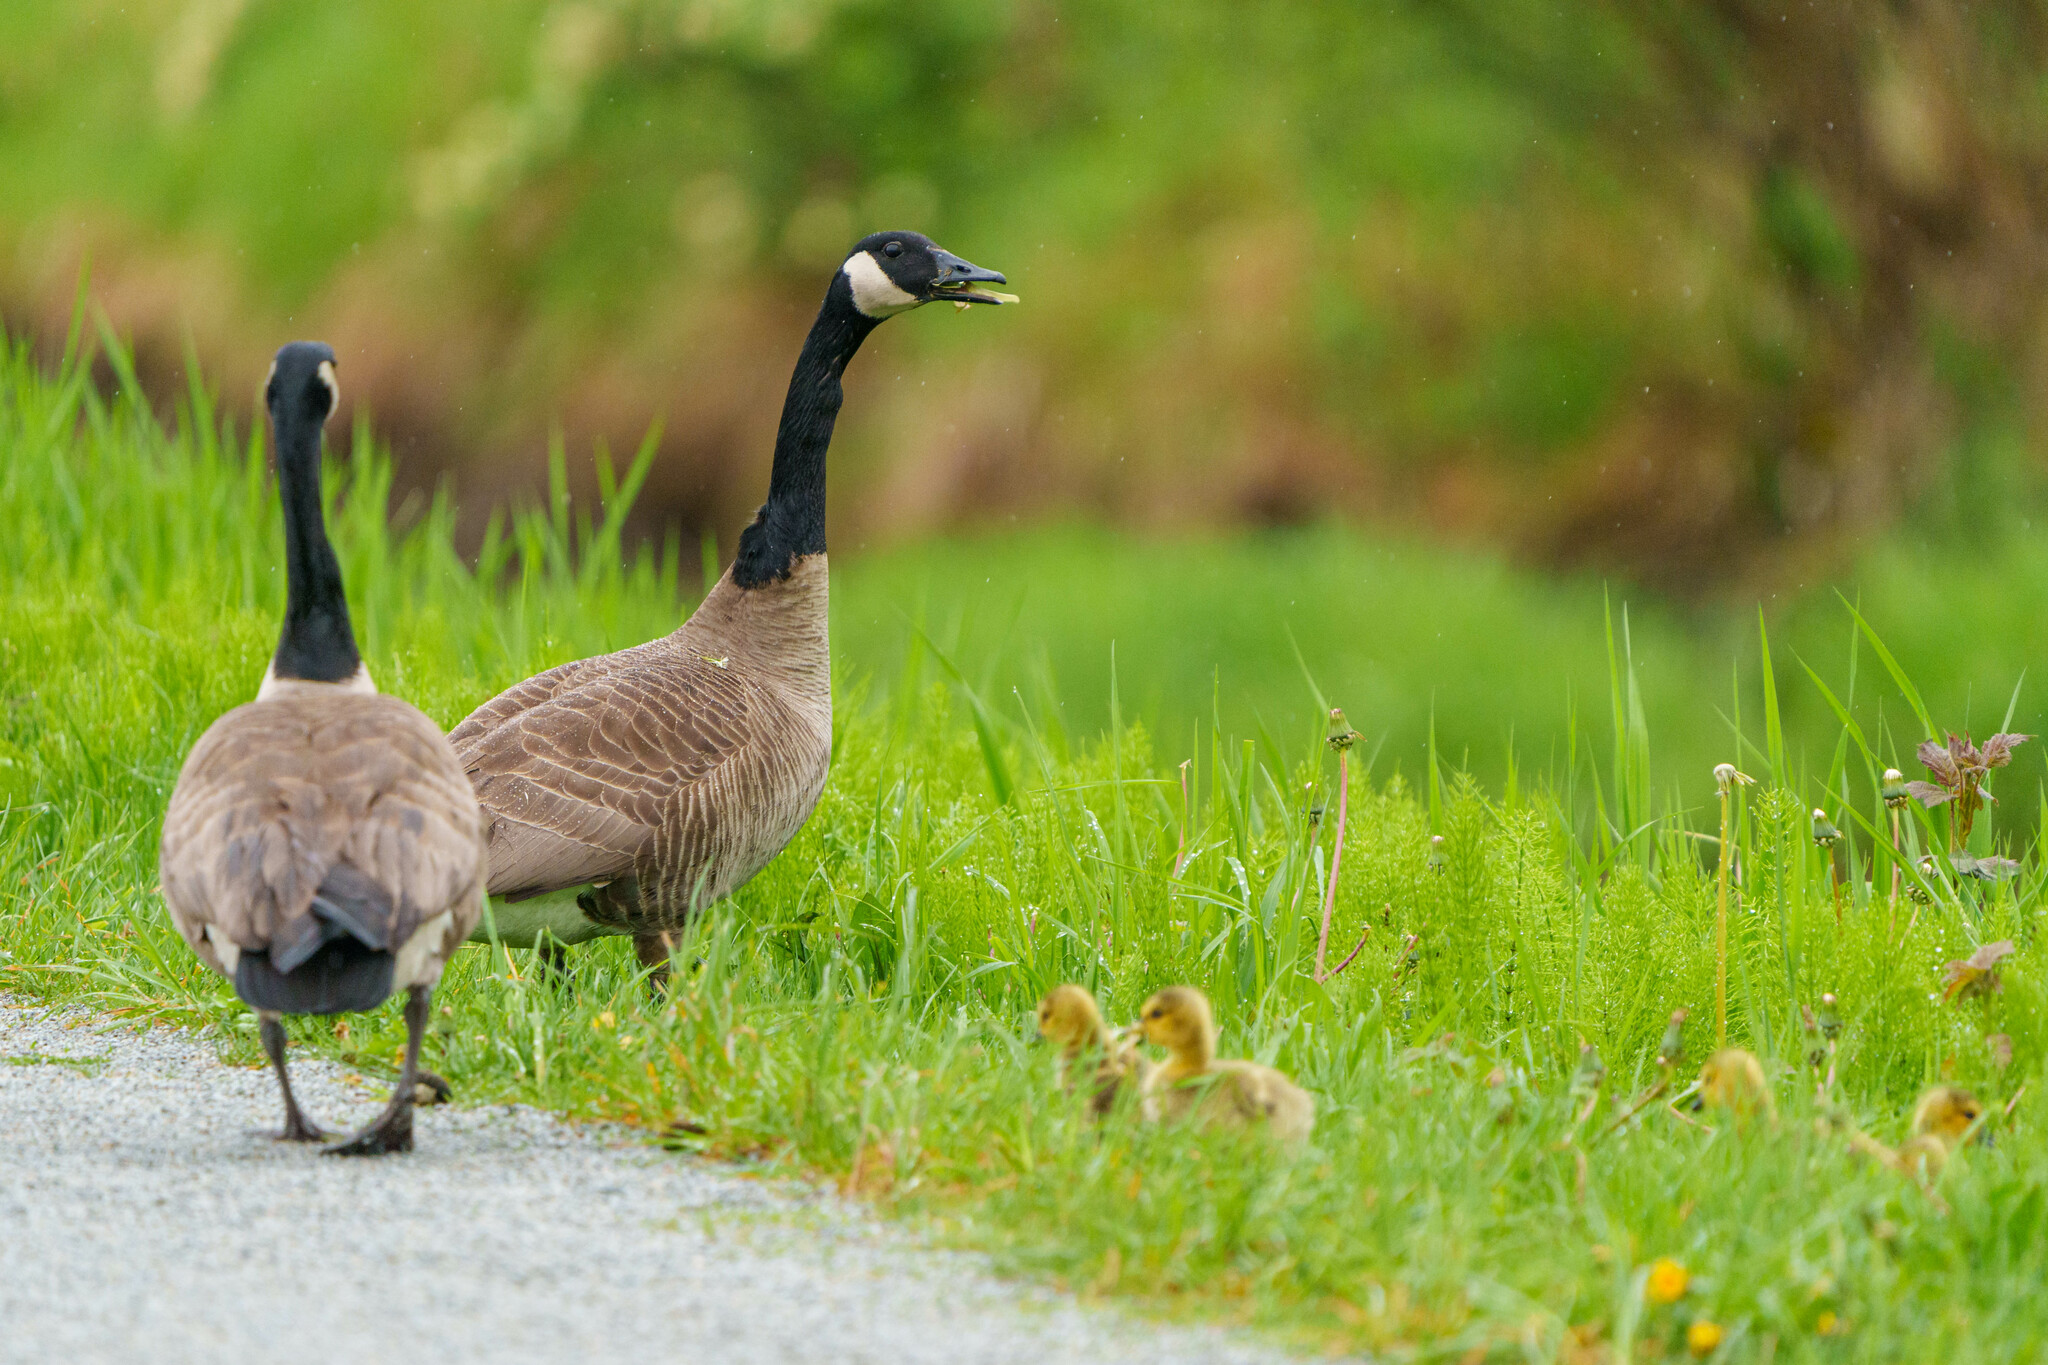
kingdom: Animalia
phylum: Chordata
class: Aves
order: Anseriformes
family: Anatidae
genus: Branta
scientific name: Branta canadensis
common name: Canada goose
